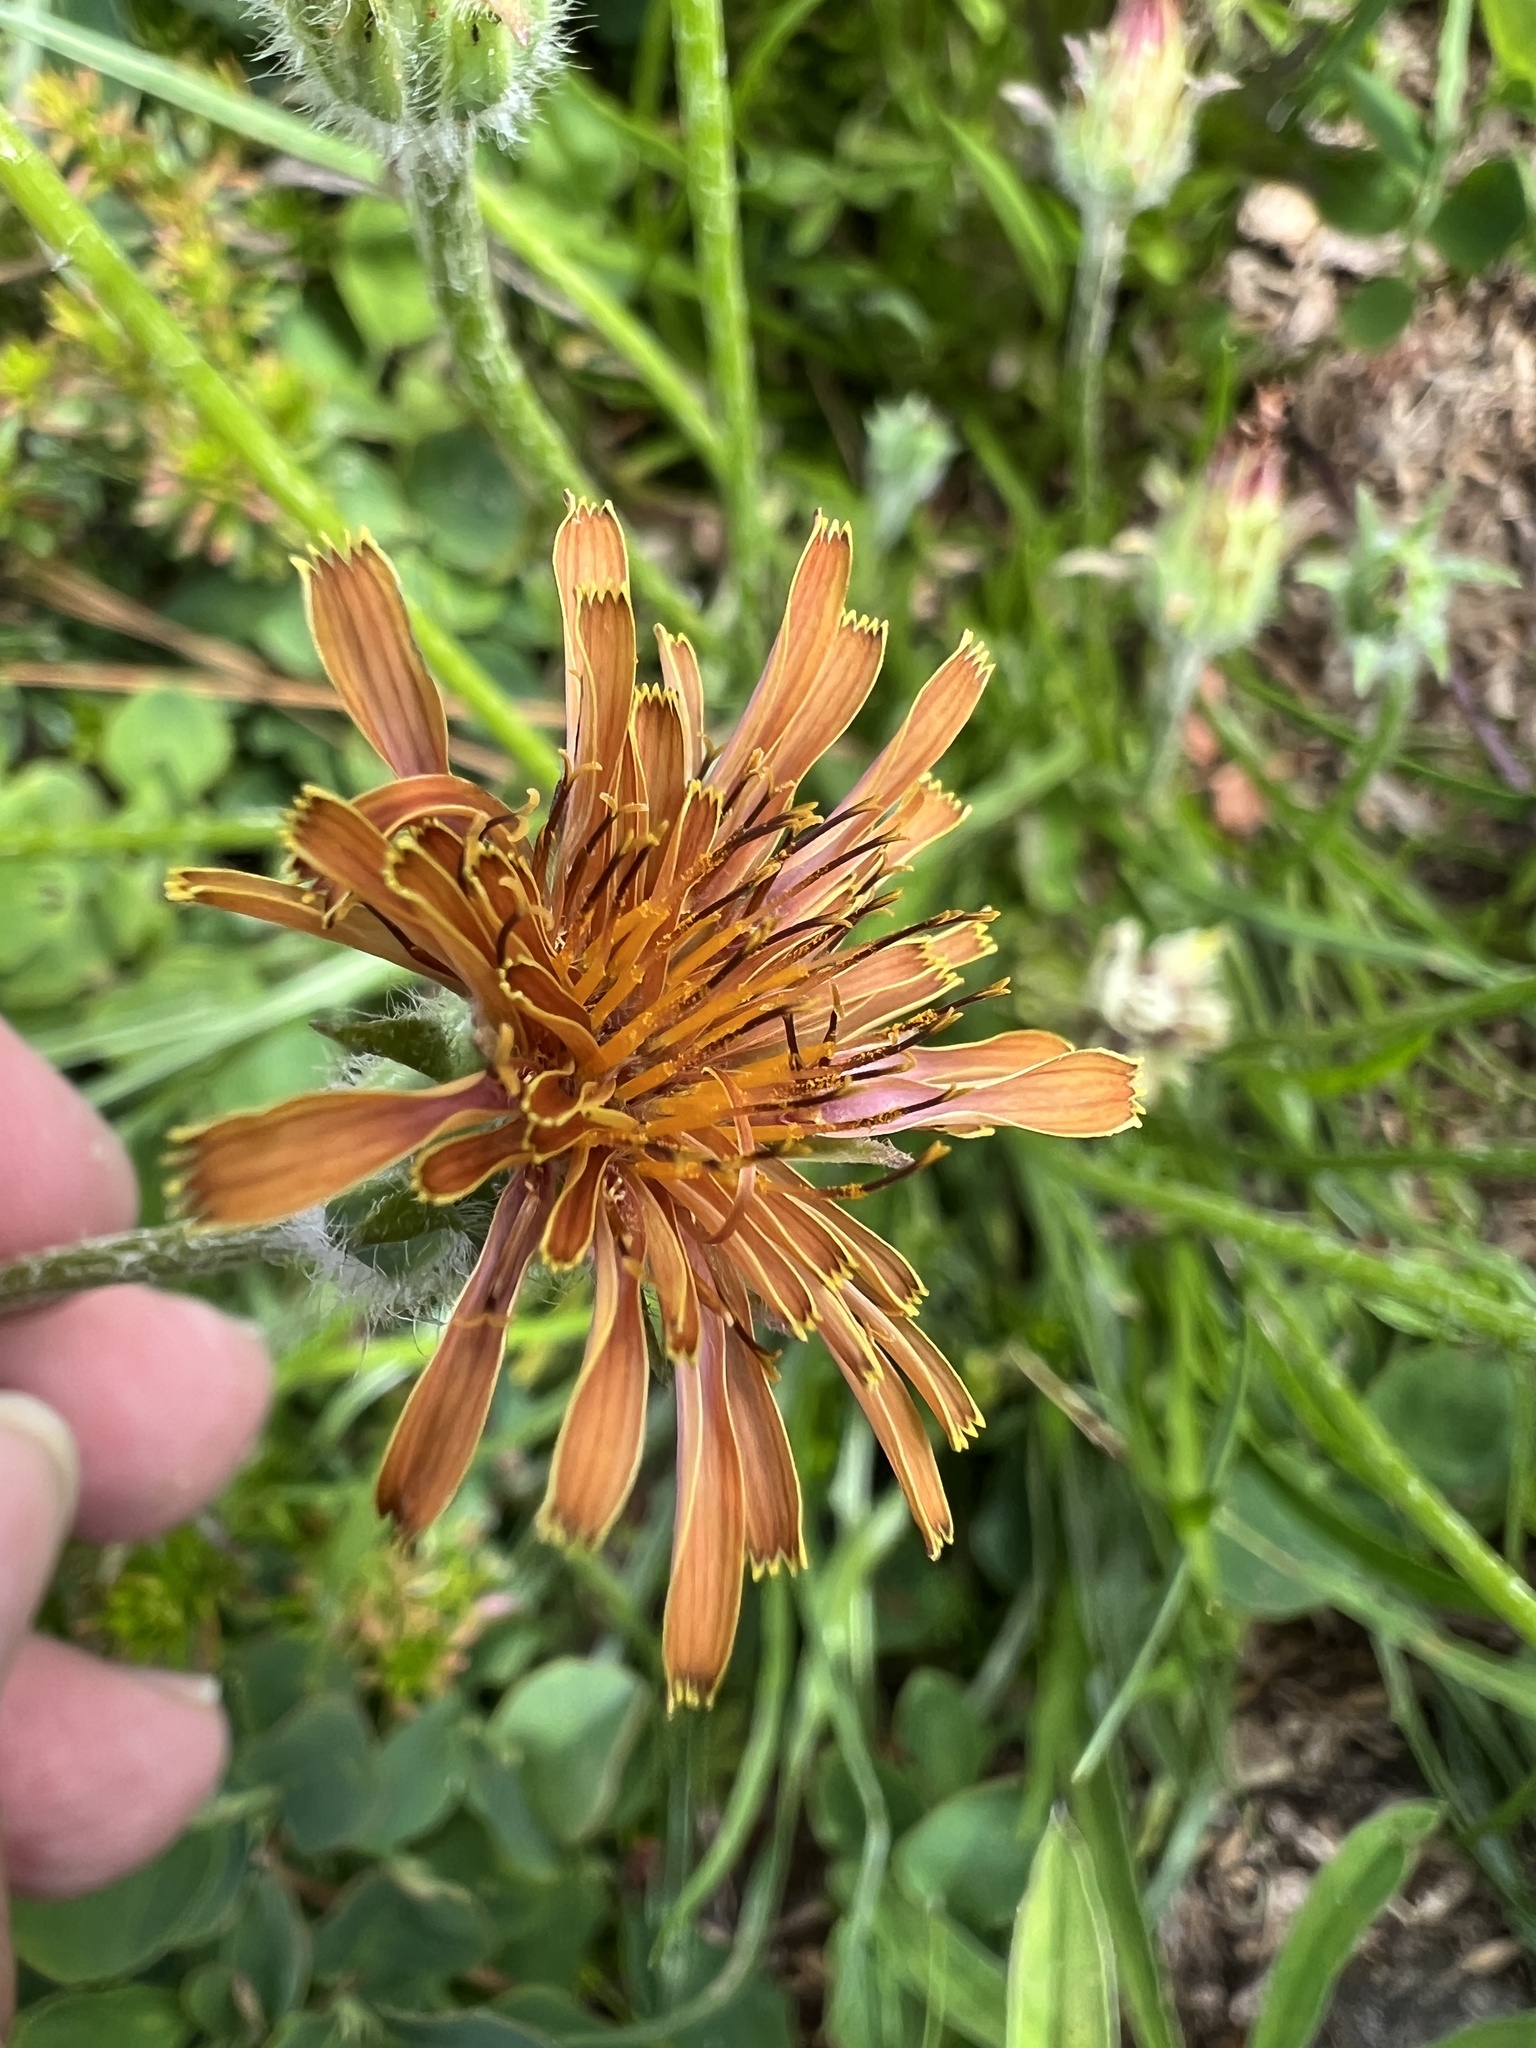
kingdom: Plantae
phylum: Tracheophyta
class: Magnoliopsida
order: Asterales
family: Asteraceae
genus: Agoseris
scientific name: Agoseris aurantiaca
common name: Mountain agoseris
